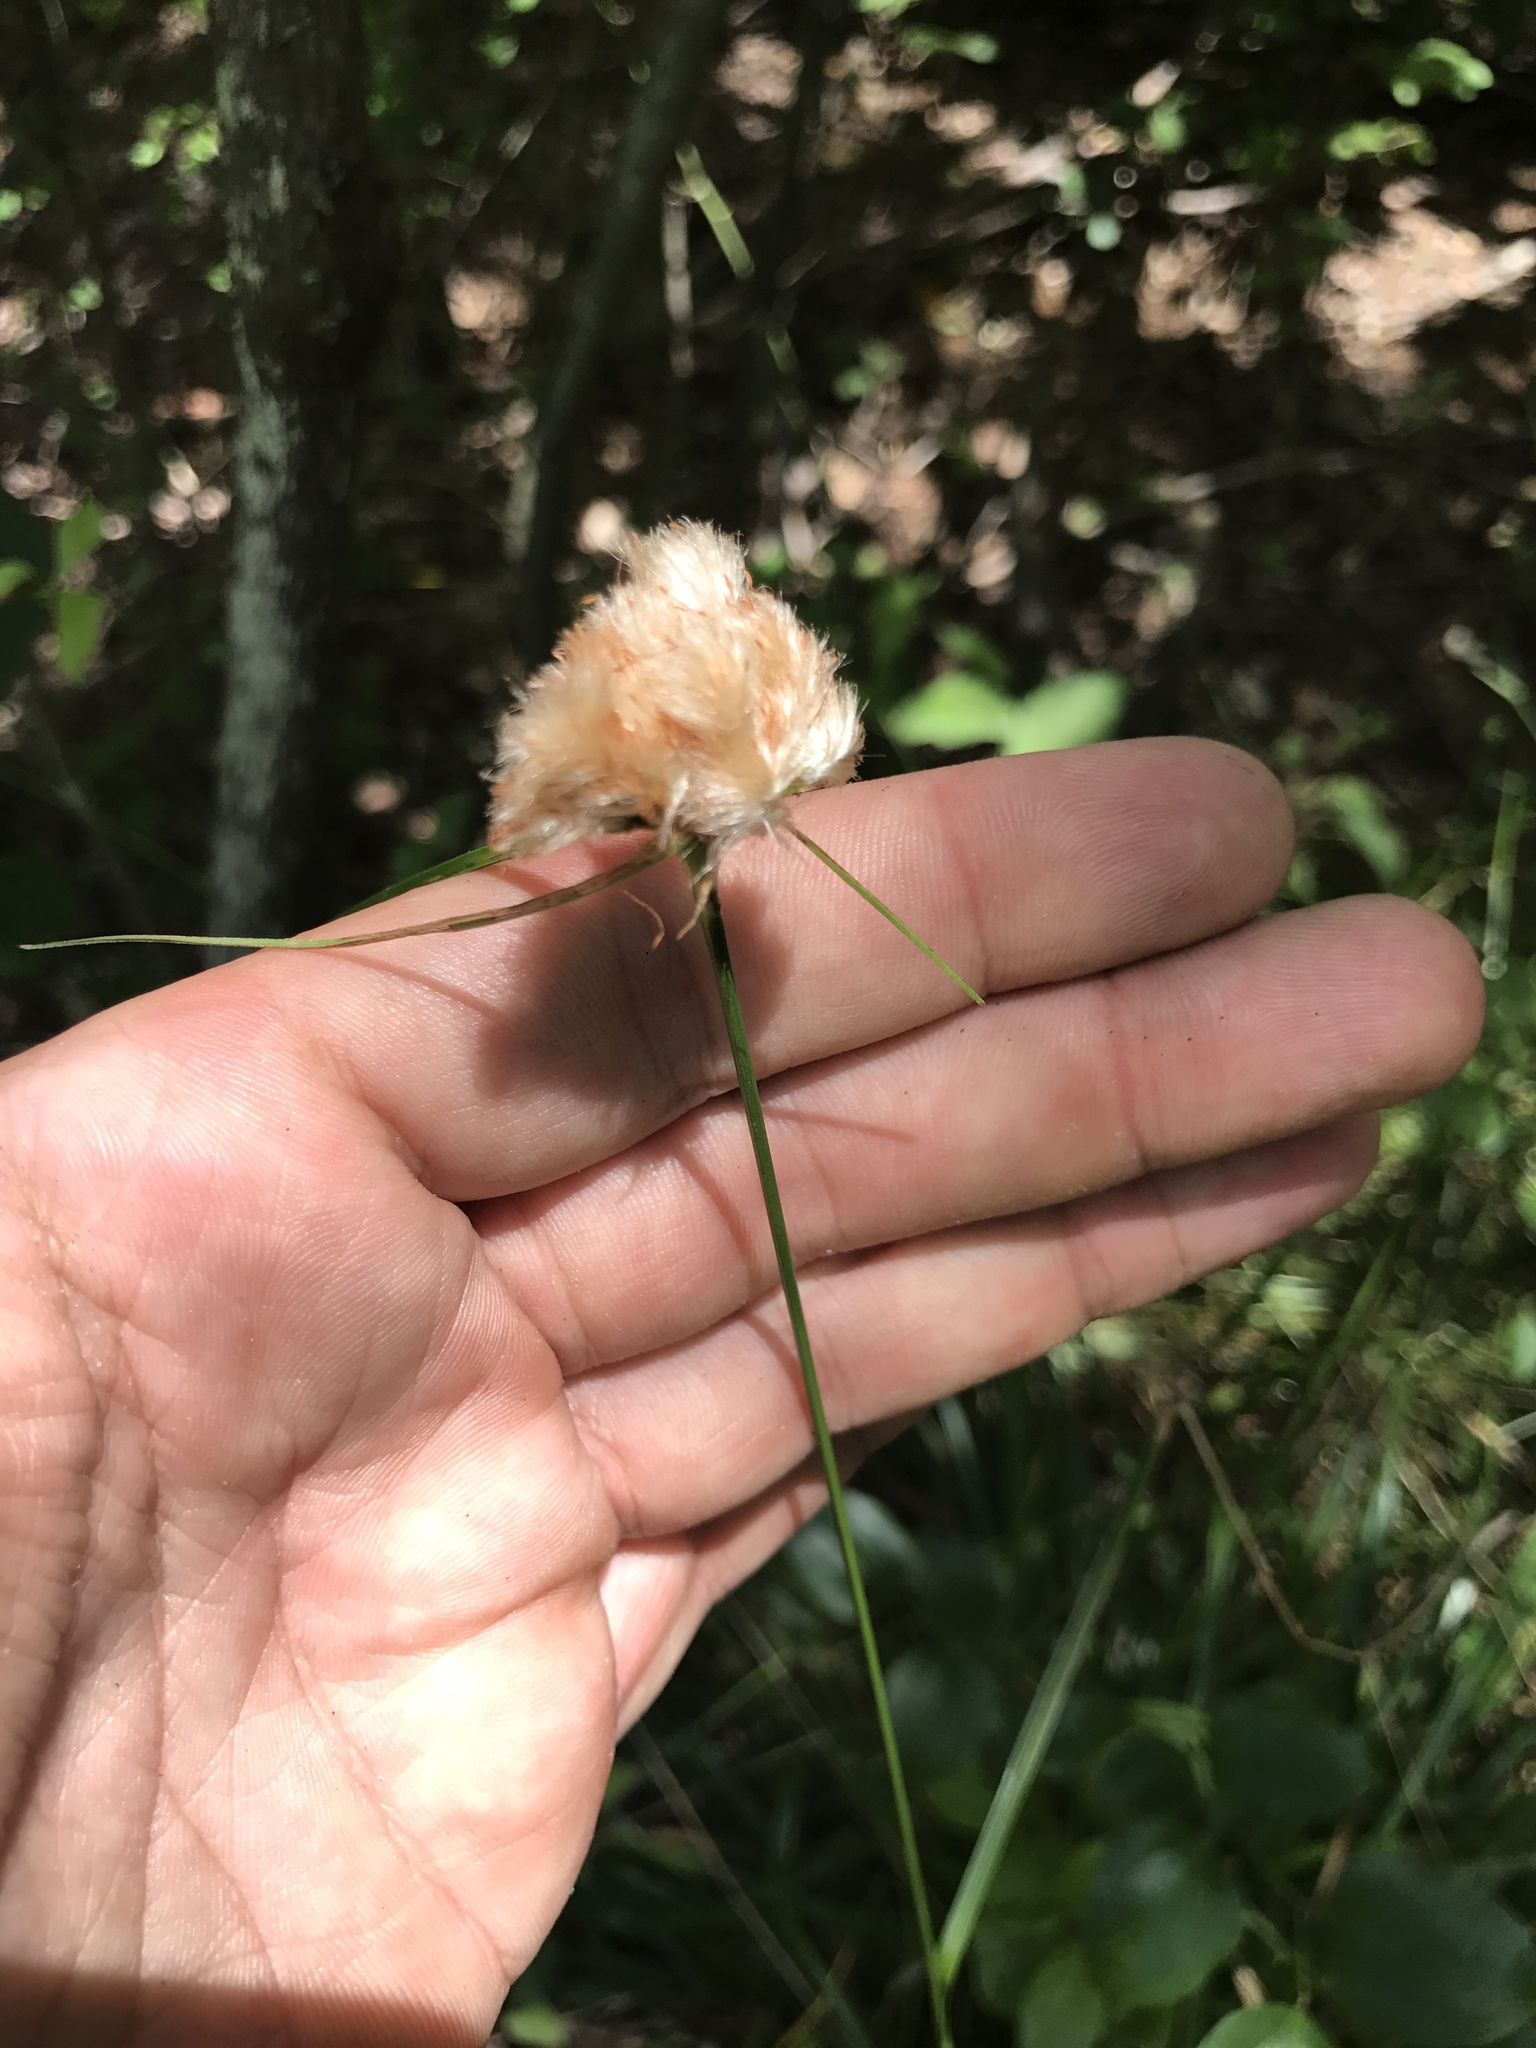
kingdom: Plantae
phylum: Tracheophyta
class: Liliopsida
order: Poales
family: Cyperaceae
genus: Eriophorum
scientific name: Eriophorum virginicum
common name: Tawny cottongrass
